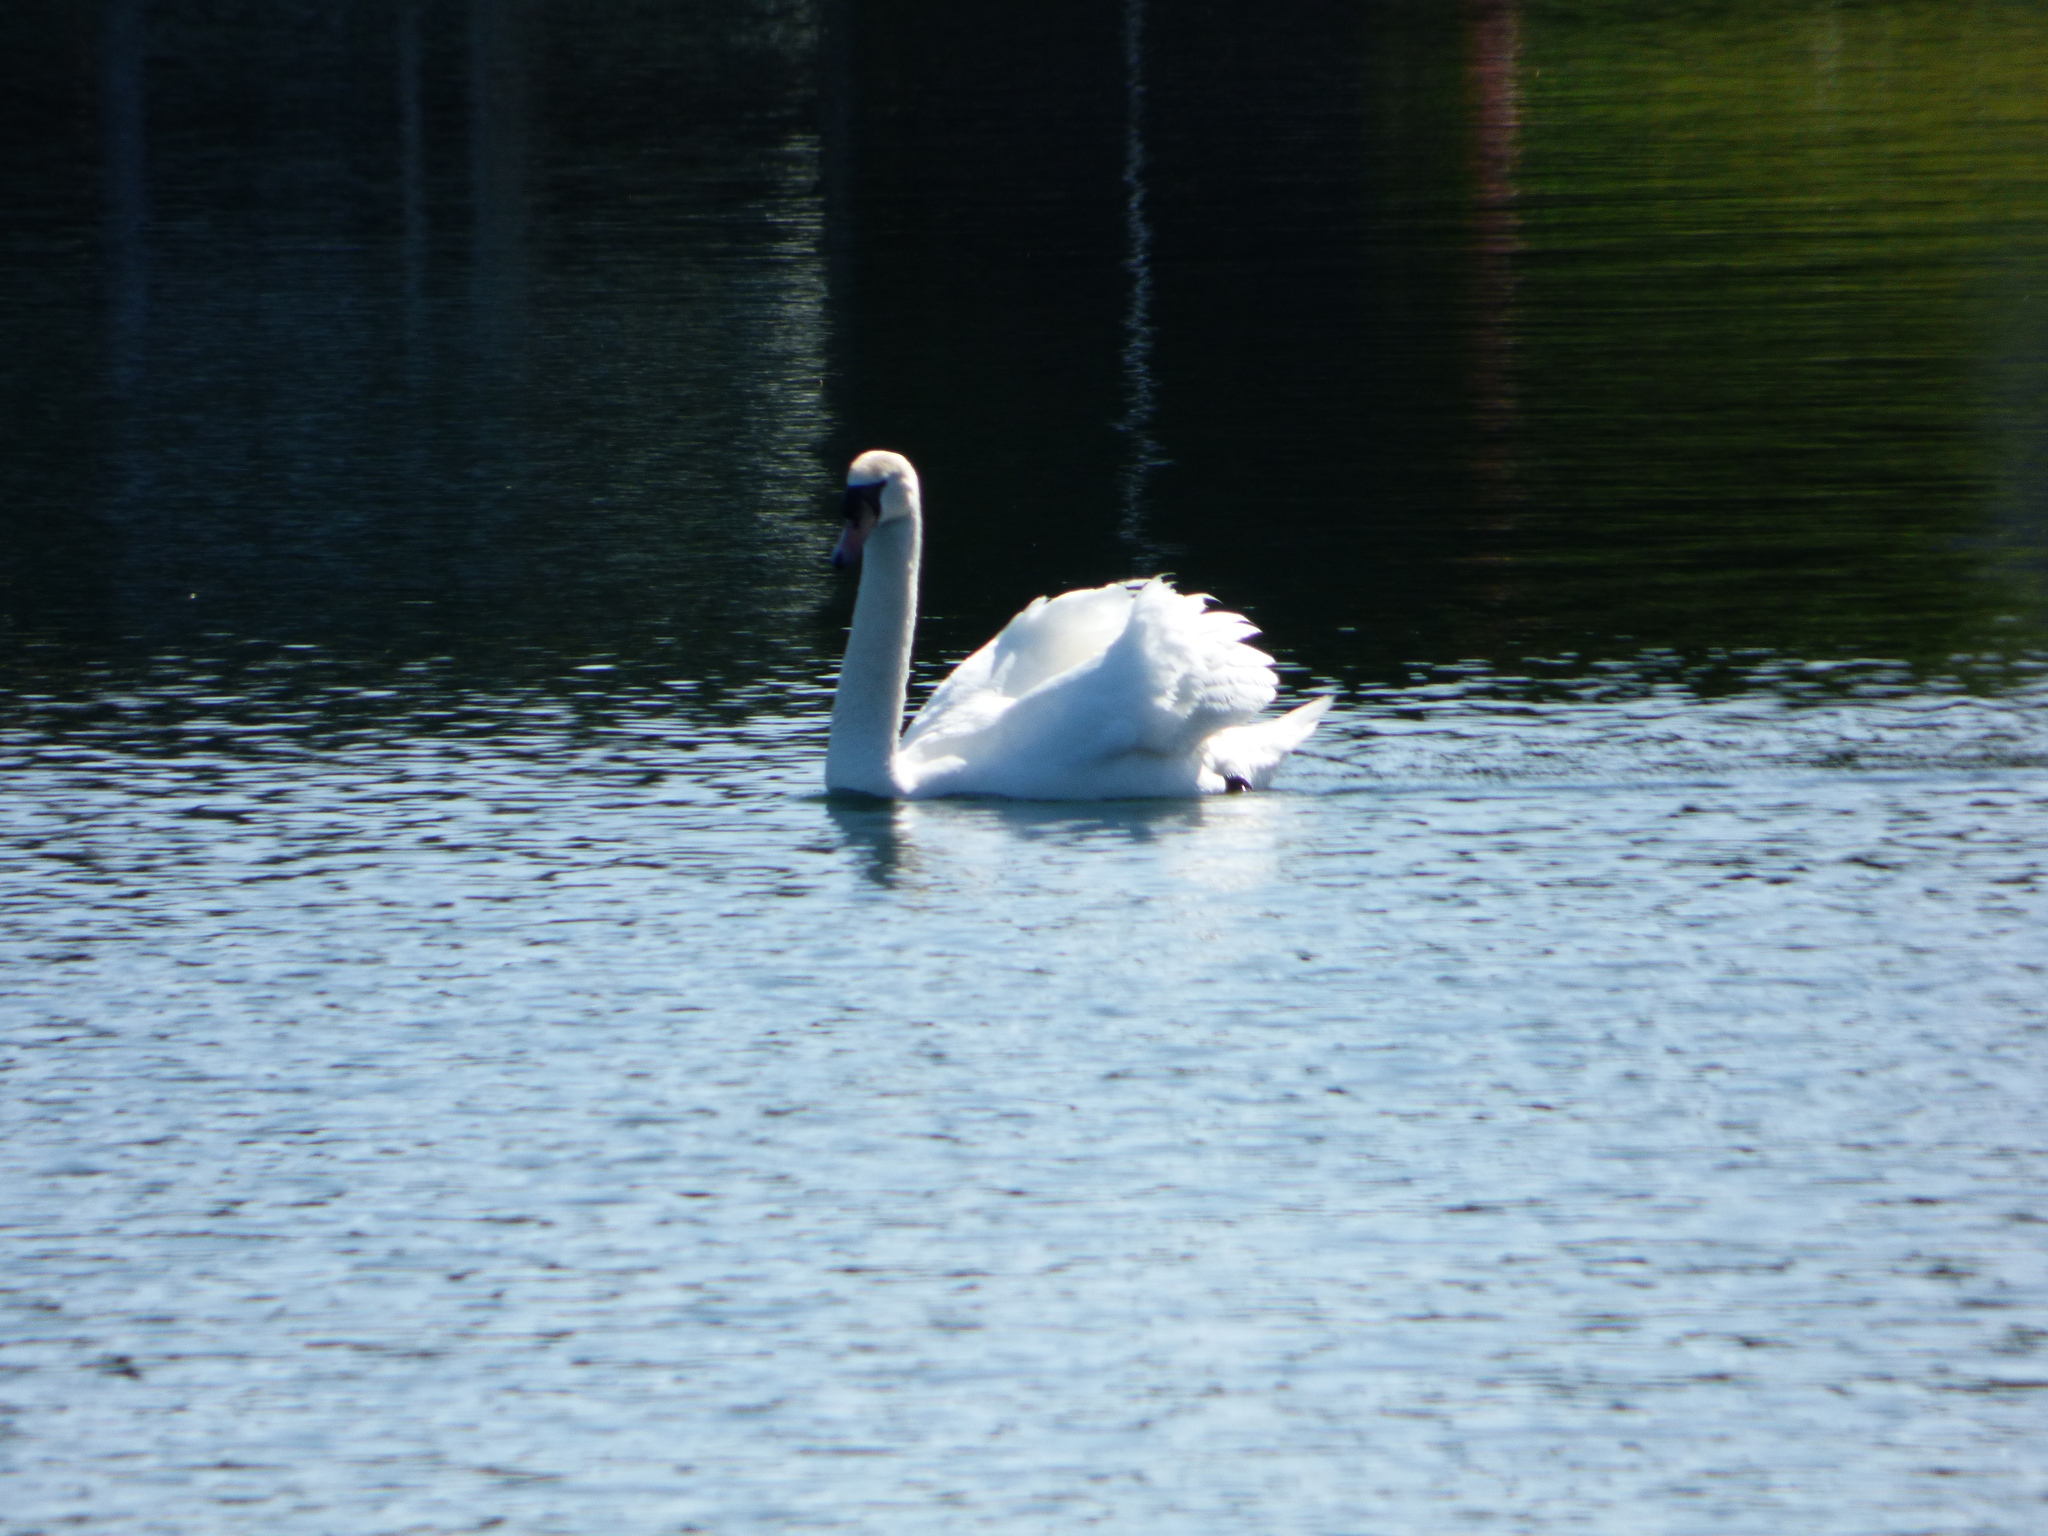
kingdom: Animalia
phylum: Chordata
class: Aves
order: Anseriformes
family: Anatidae
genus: Cygnus
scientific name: Cygnus olor
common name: Mute swan
